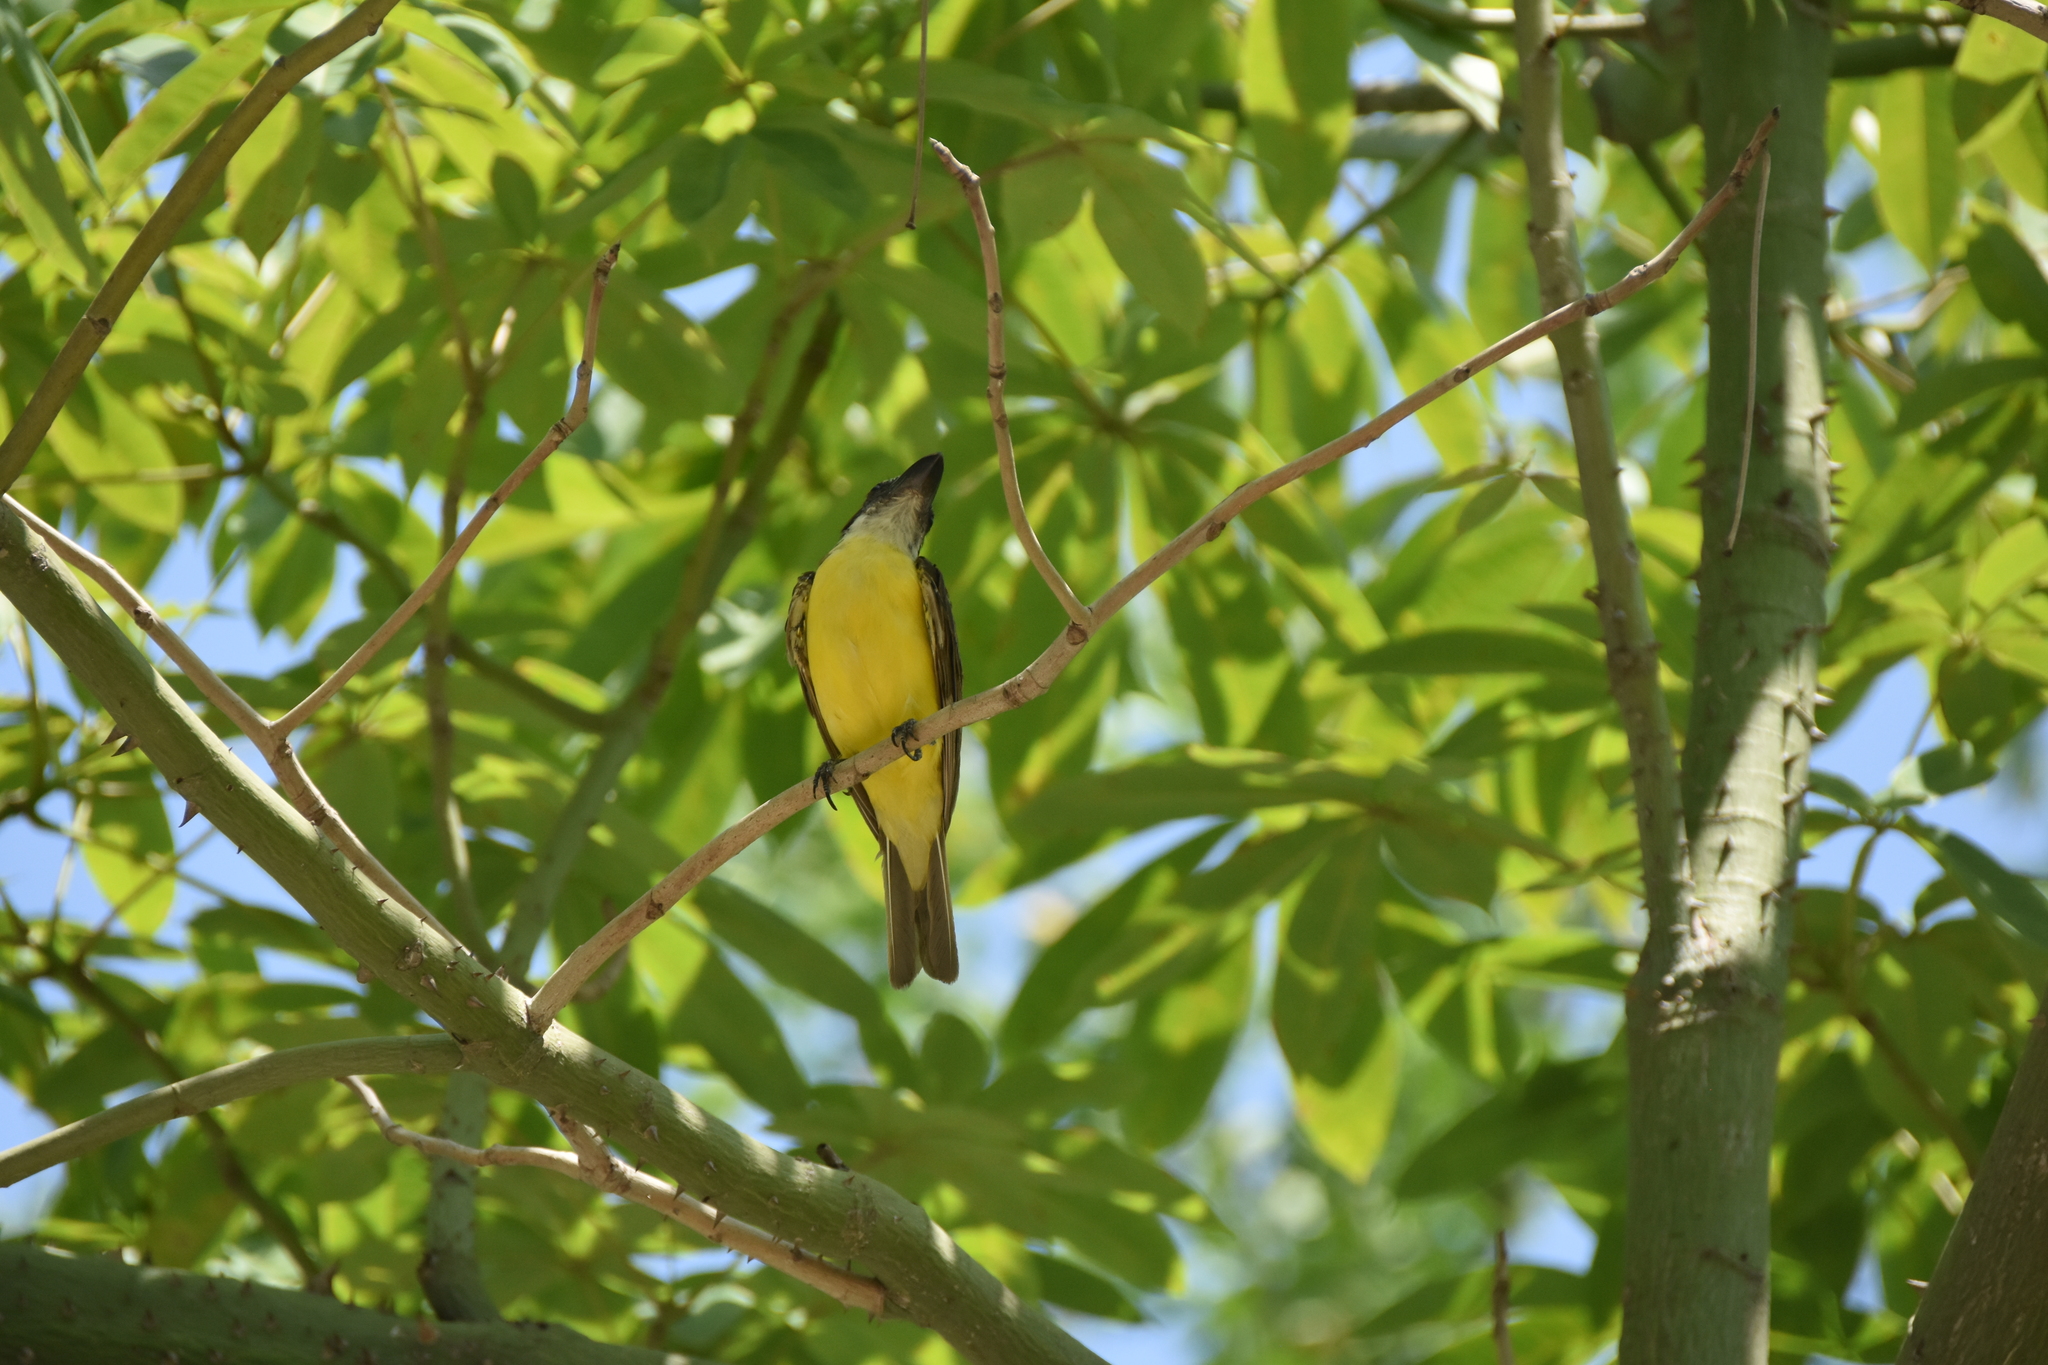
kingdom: Animalia
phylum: Chordata
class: Aves
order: Passeriformes
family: Tyrannidae
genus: Megarynchus
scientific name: Megarynchus pitangua
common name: Boat-billed flycatcher
